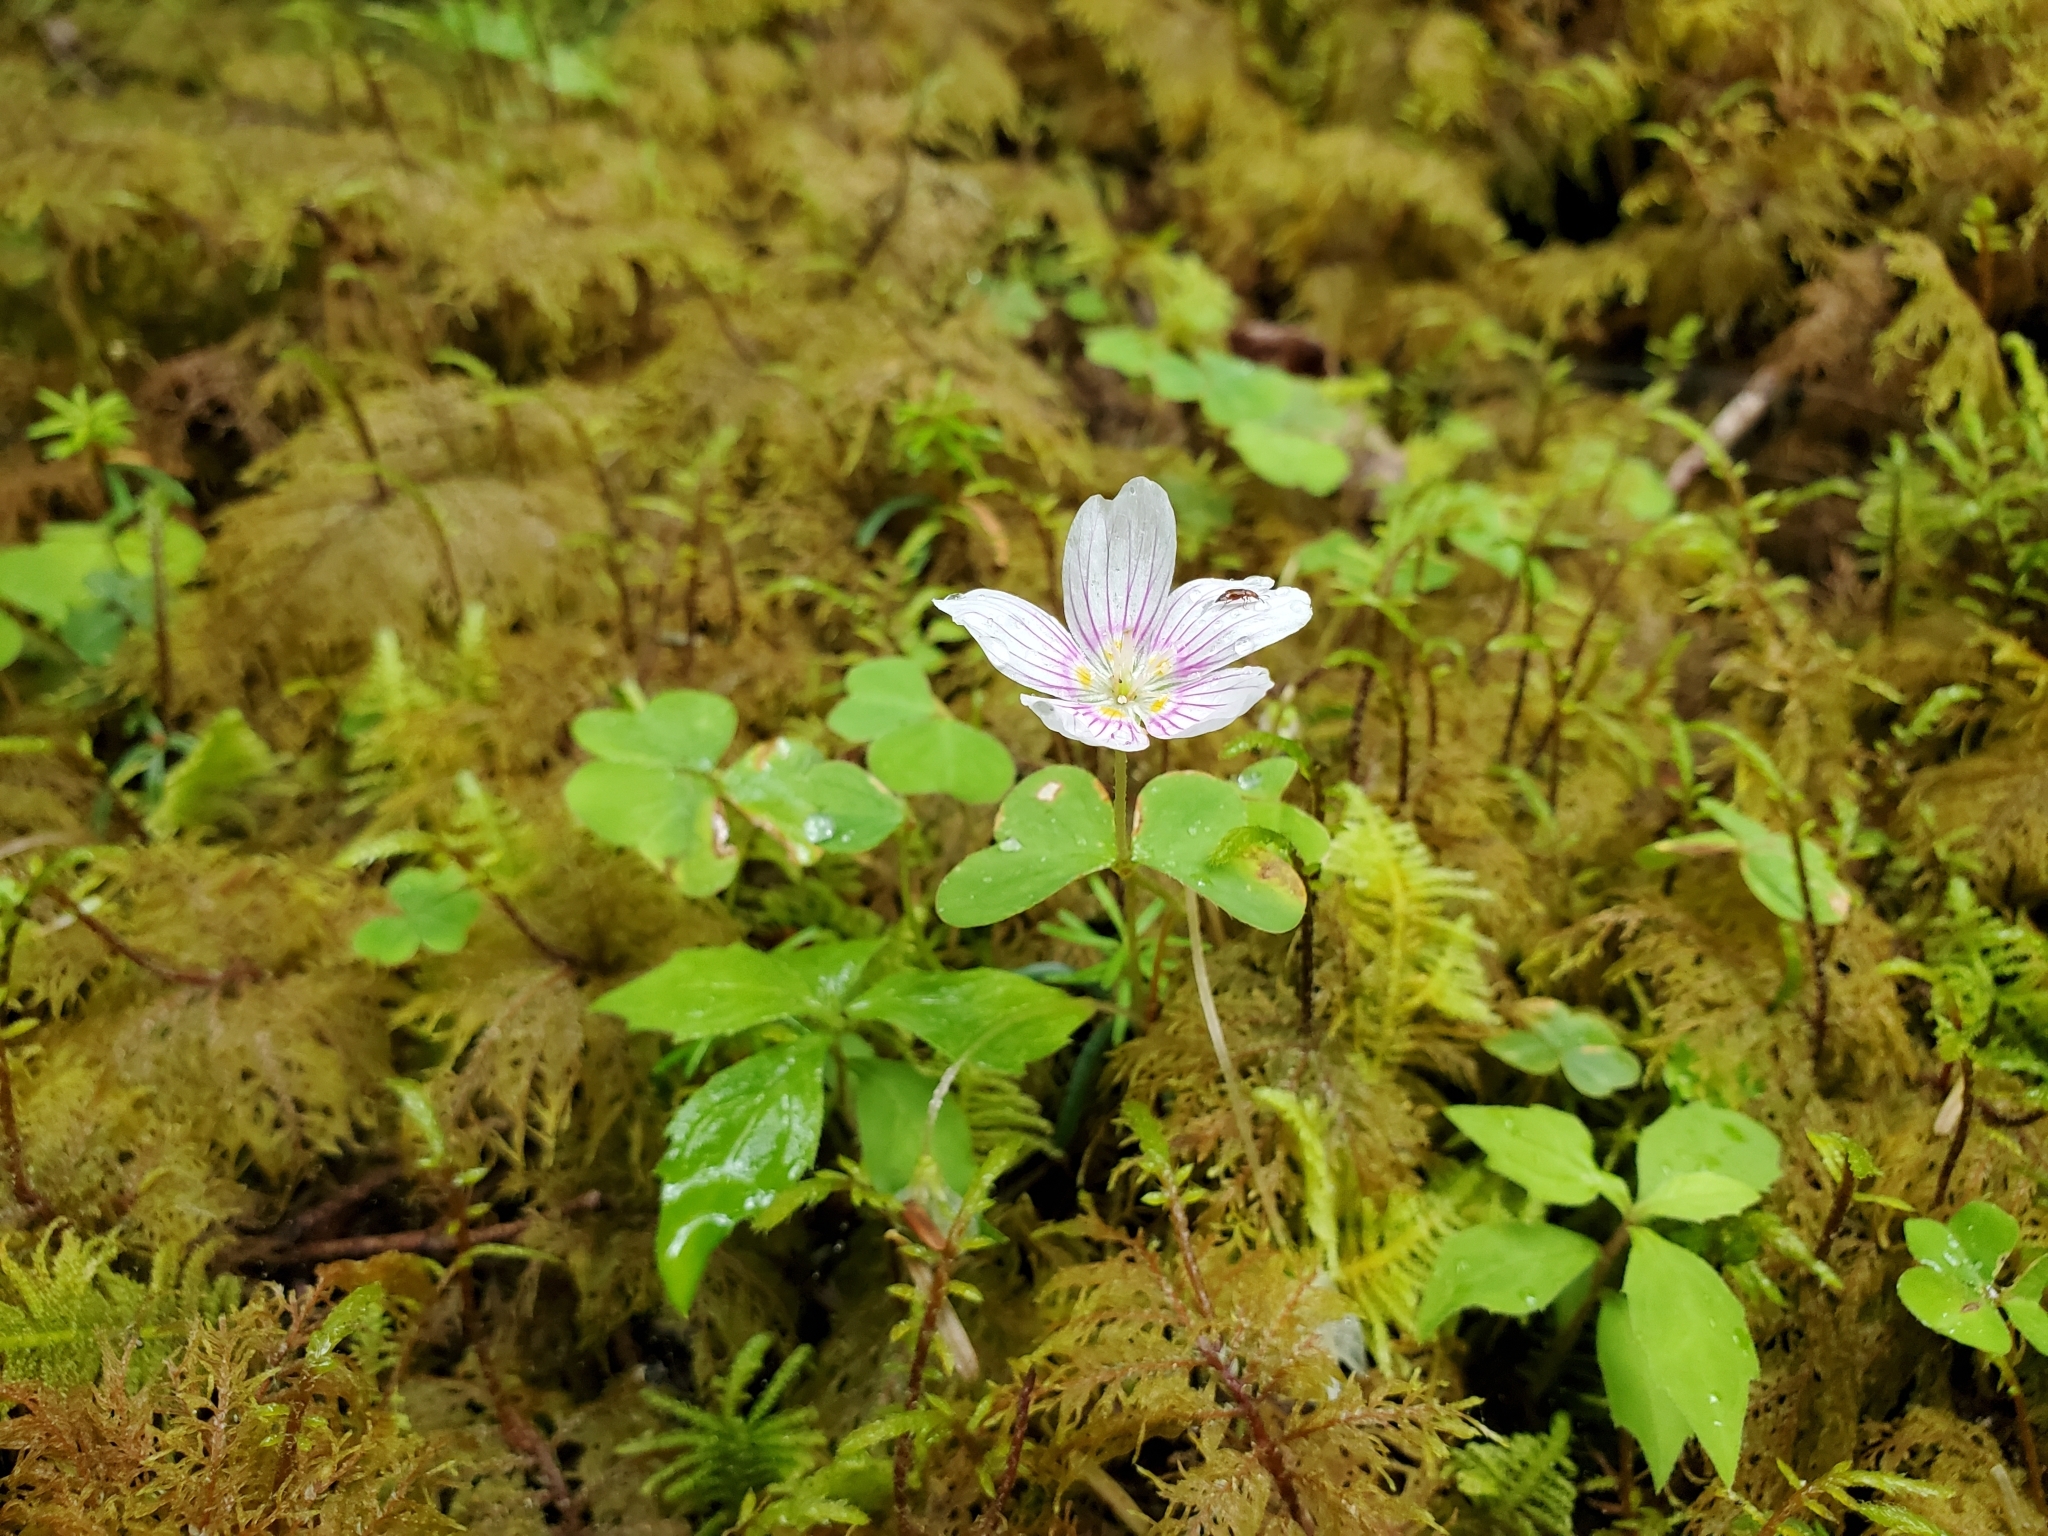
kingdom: Plantae
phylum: Tracheophyta
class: Magnoliopsida
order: Oxalidales
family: Oxalidaceae
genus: Oxalis
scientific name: Oxalis montana
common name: American wood-sorrel
